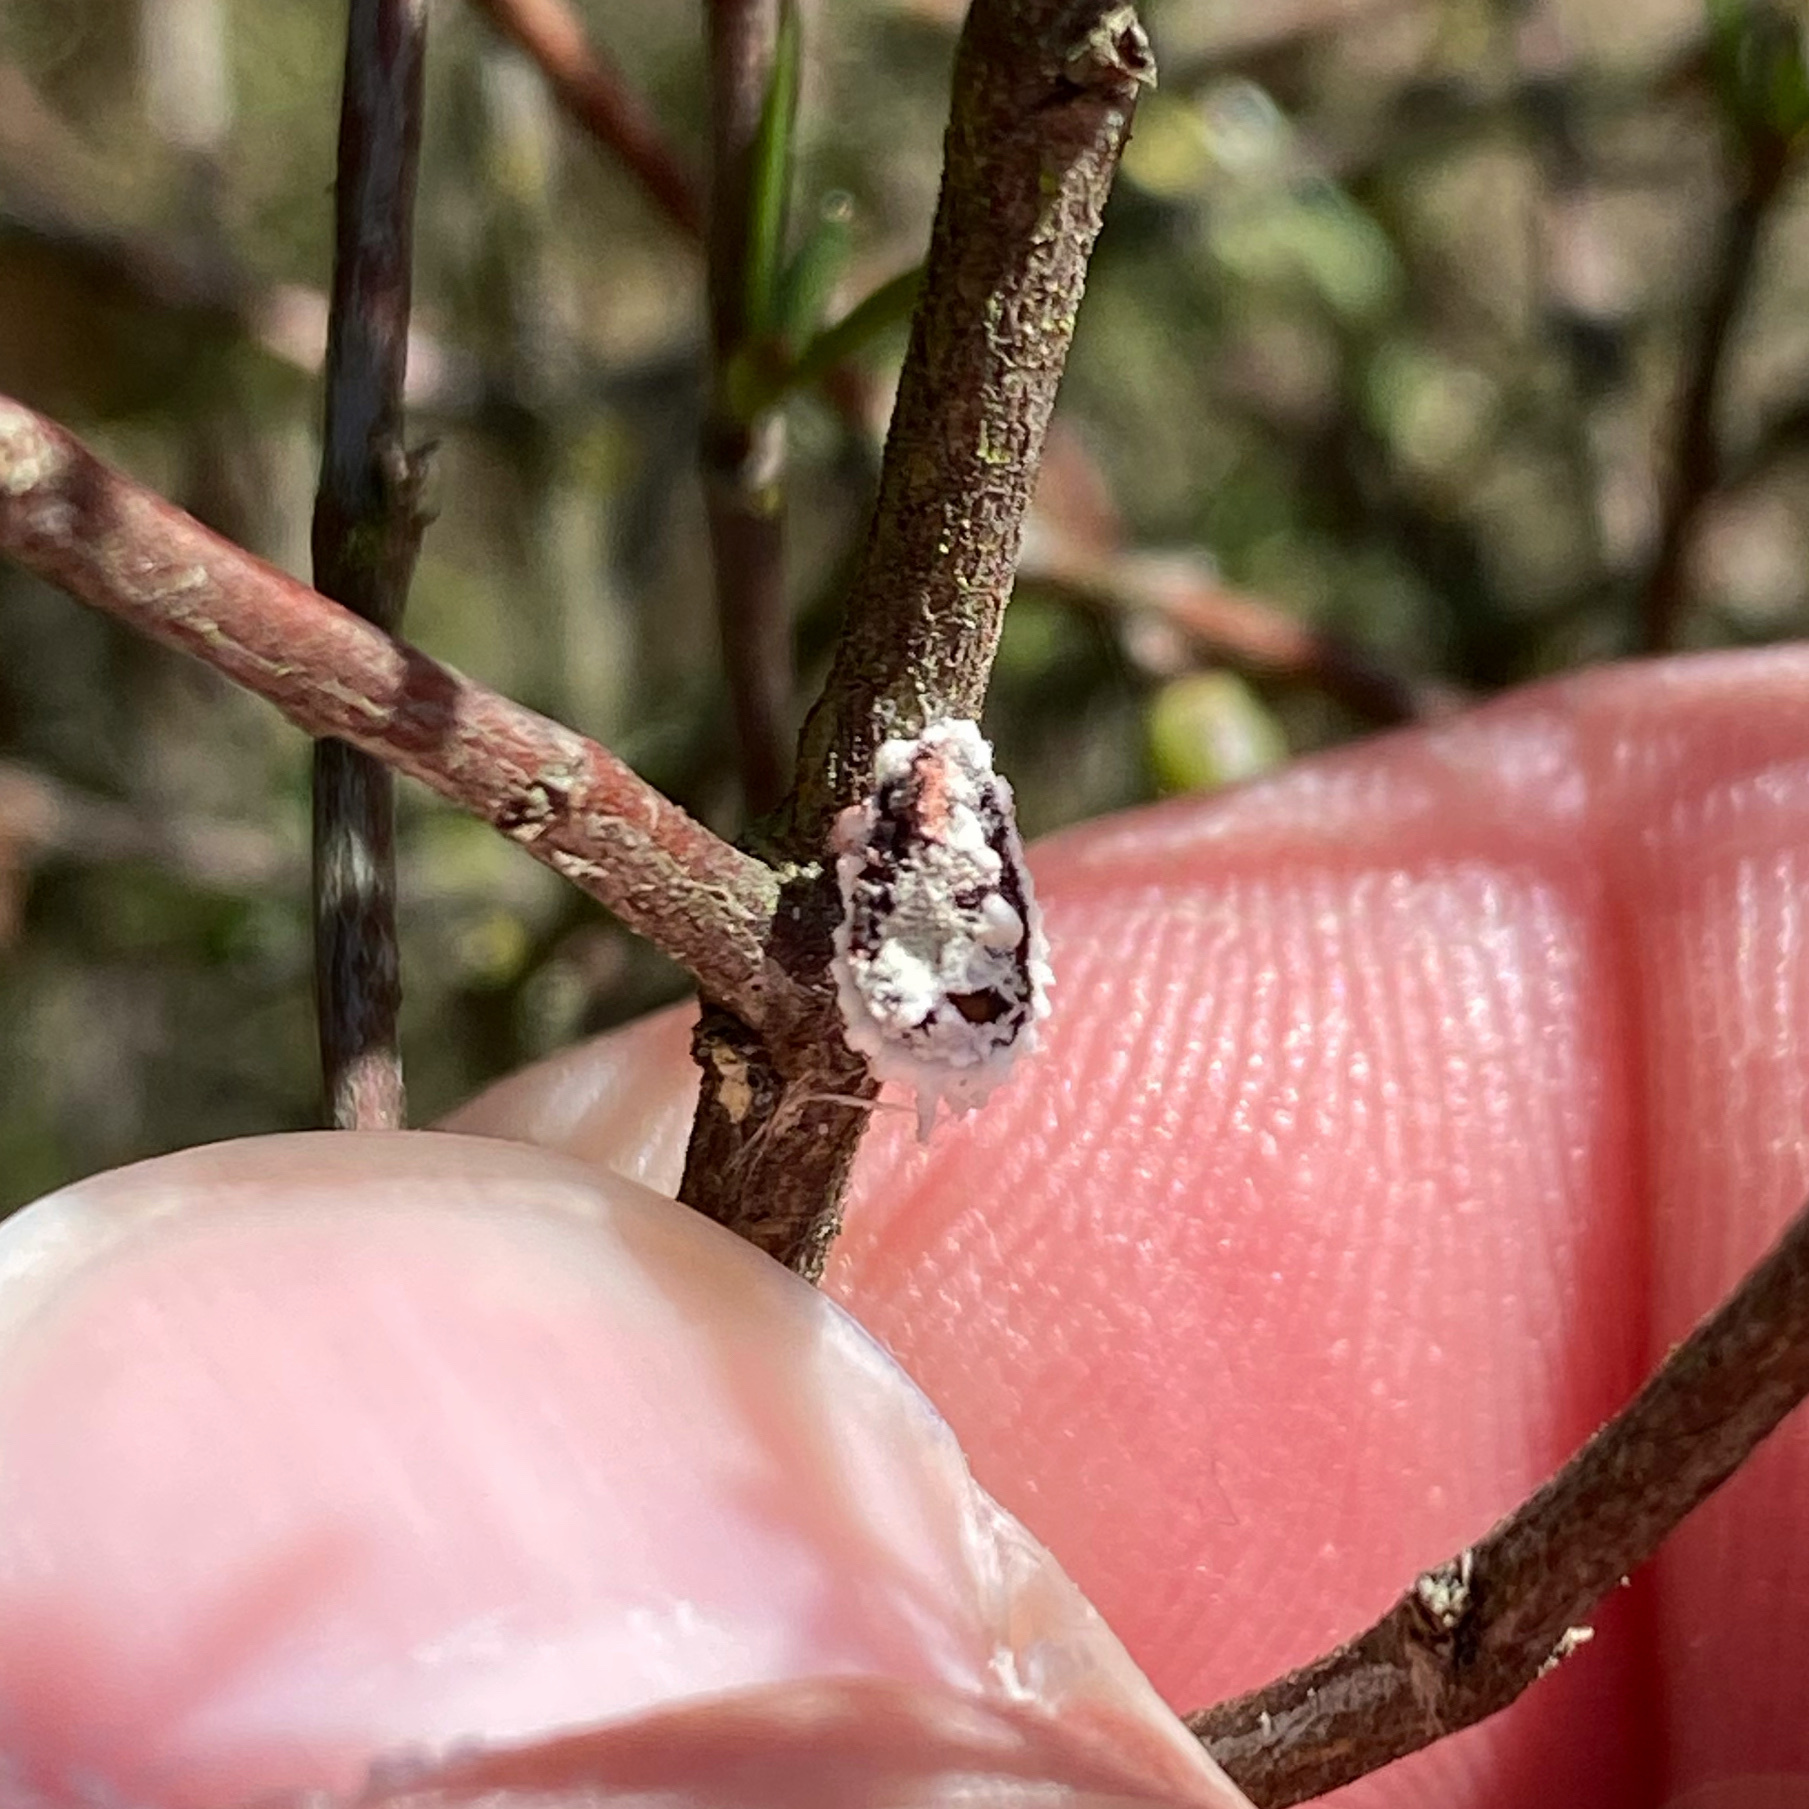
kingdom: Animalia
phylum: Arthropoda
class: Insecta
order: Hemiptera
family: Margarodidae
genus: Icerya
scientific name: Icerya purchasi
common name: Cottony cushion scale
